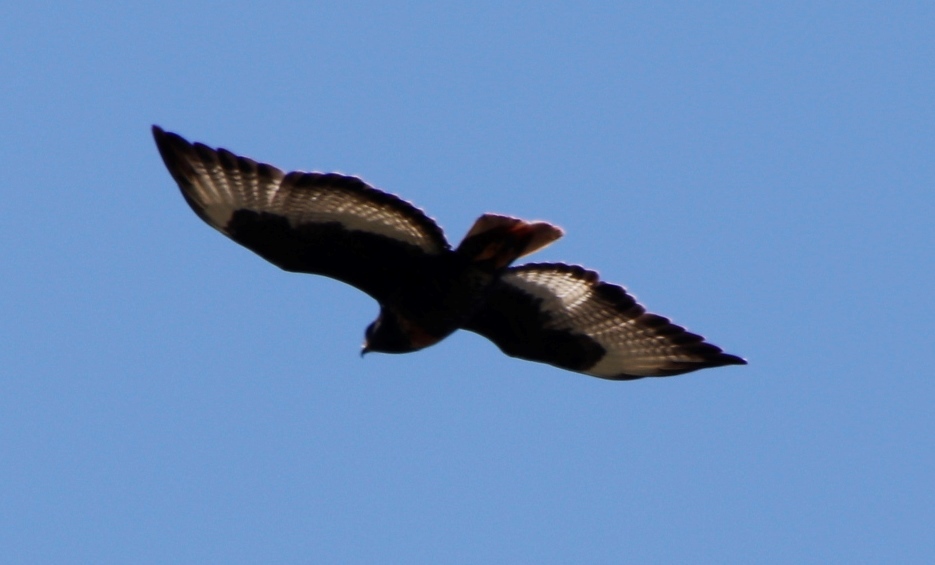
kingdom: Animalia
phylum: Chordata
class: Aves
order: Accipitriformes
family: Accipitridae
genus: Buteo
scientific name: Buteo rufofuscus
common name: Jackal buzzard
